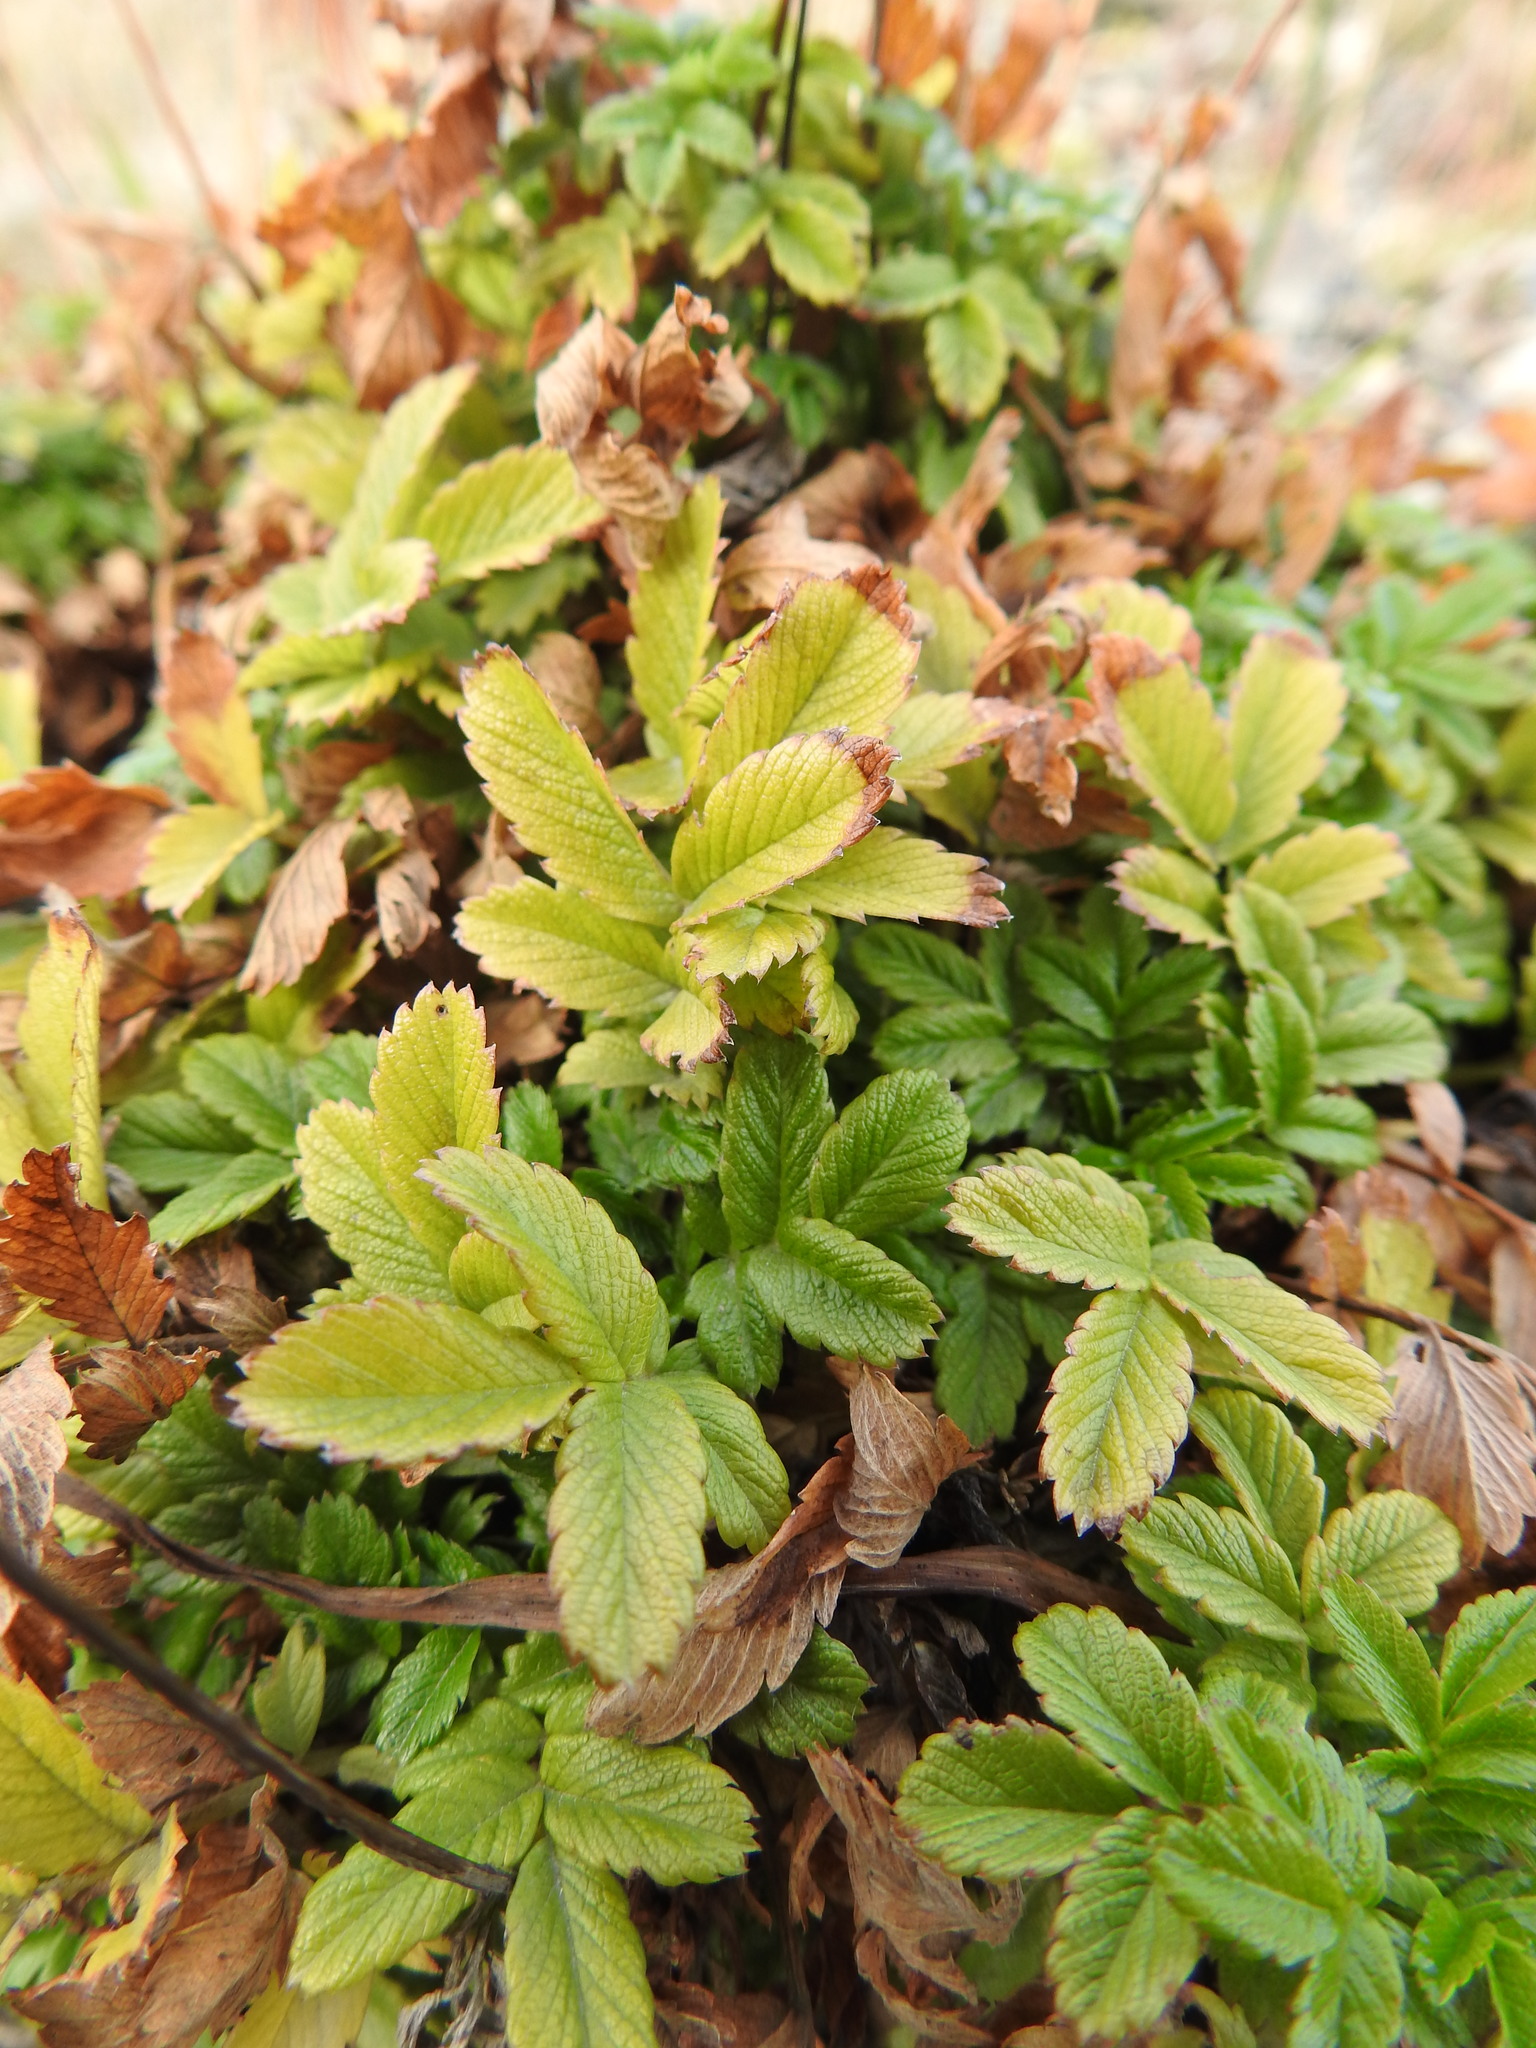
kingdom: Plantae
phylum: Tracheophyta
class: Magnoliopsida
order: Rosales
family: Rosaceae
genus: Acaena
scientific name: Acaena ovalifolia
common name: Two-spined acaena
